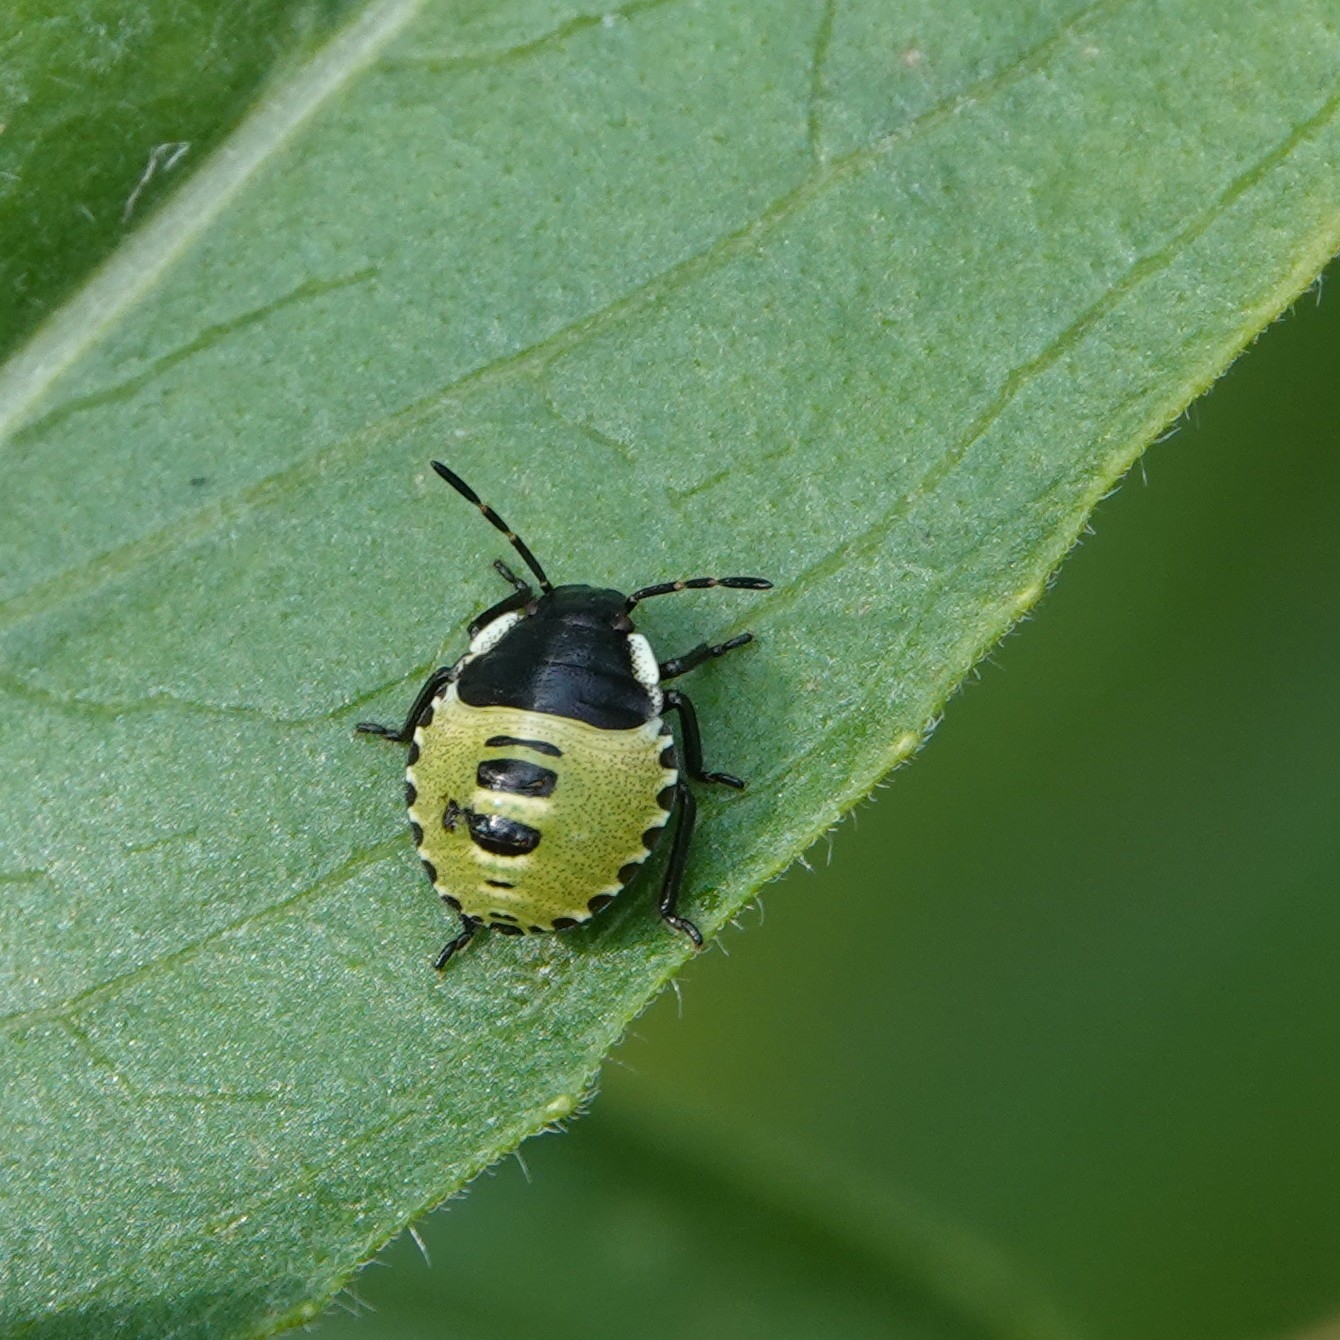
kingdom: Animalia
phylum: Arthropoda
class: Insecta
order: Hemiptera
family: Pentatomidae
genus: Palomena
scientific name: Palomena prasina
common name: Green shieldbug
